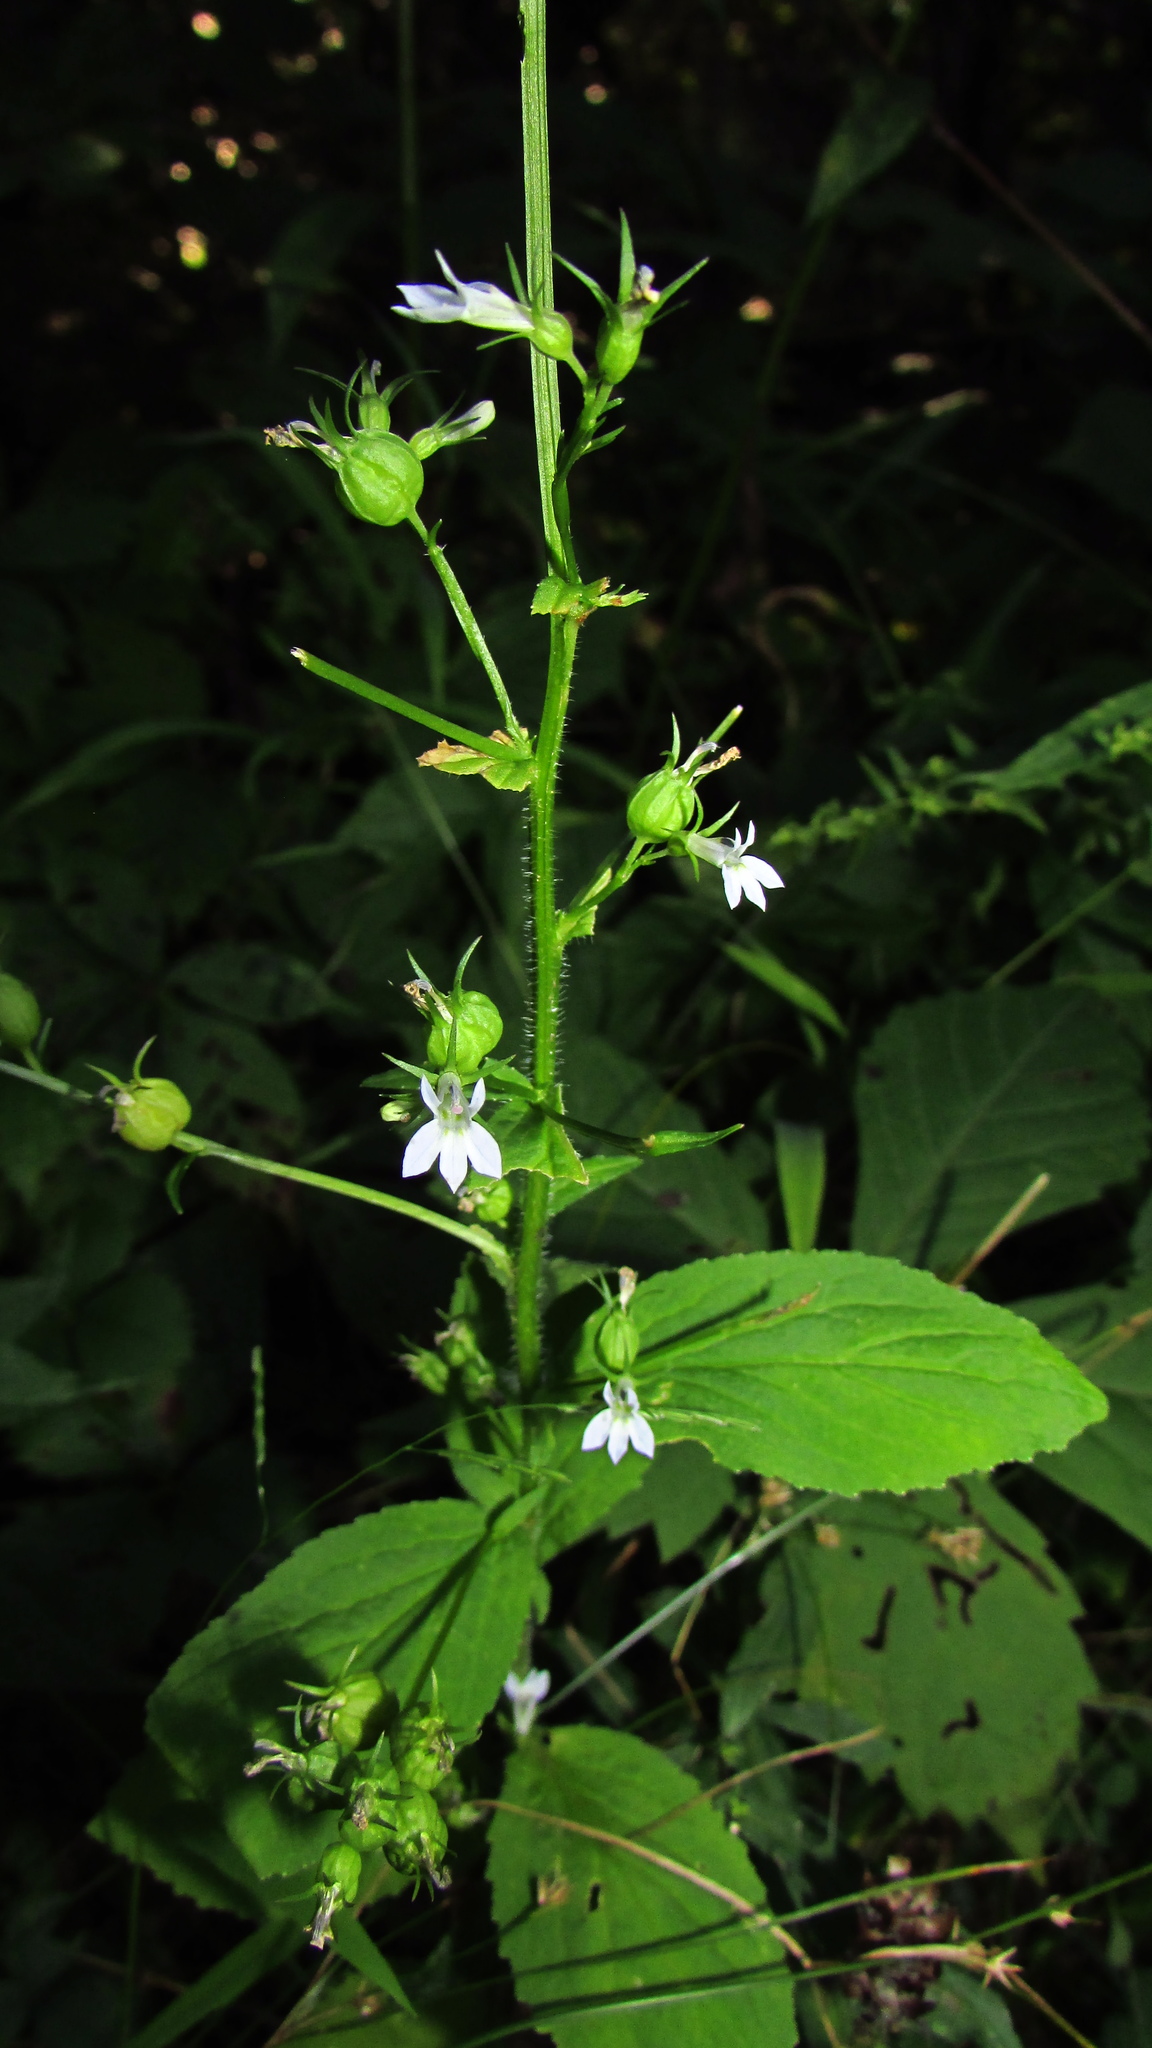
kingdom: Plantae
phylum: Tracheophyta
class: Magnoliopsida
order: Asterales
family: Campanulaceae
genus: Lobelia
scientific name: Lobelia inflata
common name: Indian tobacco
